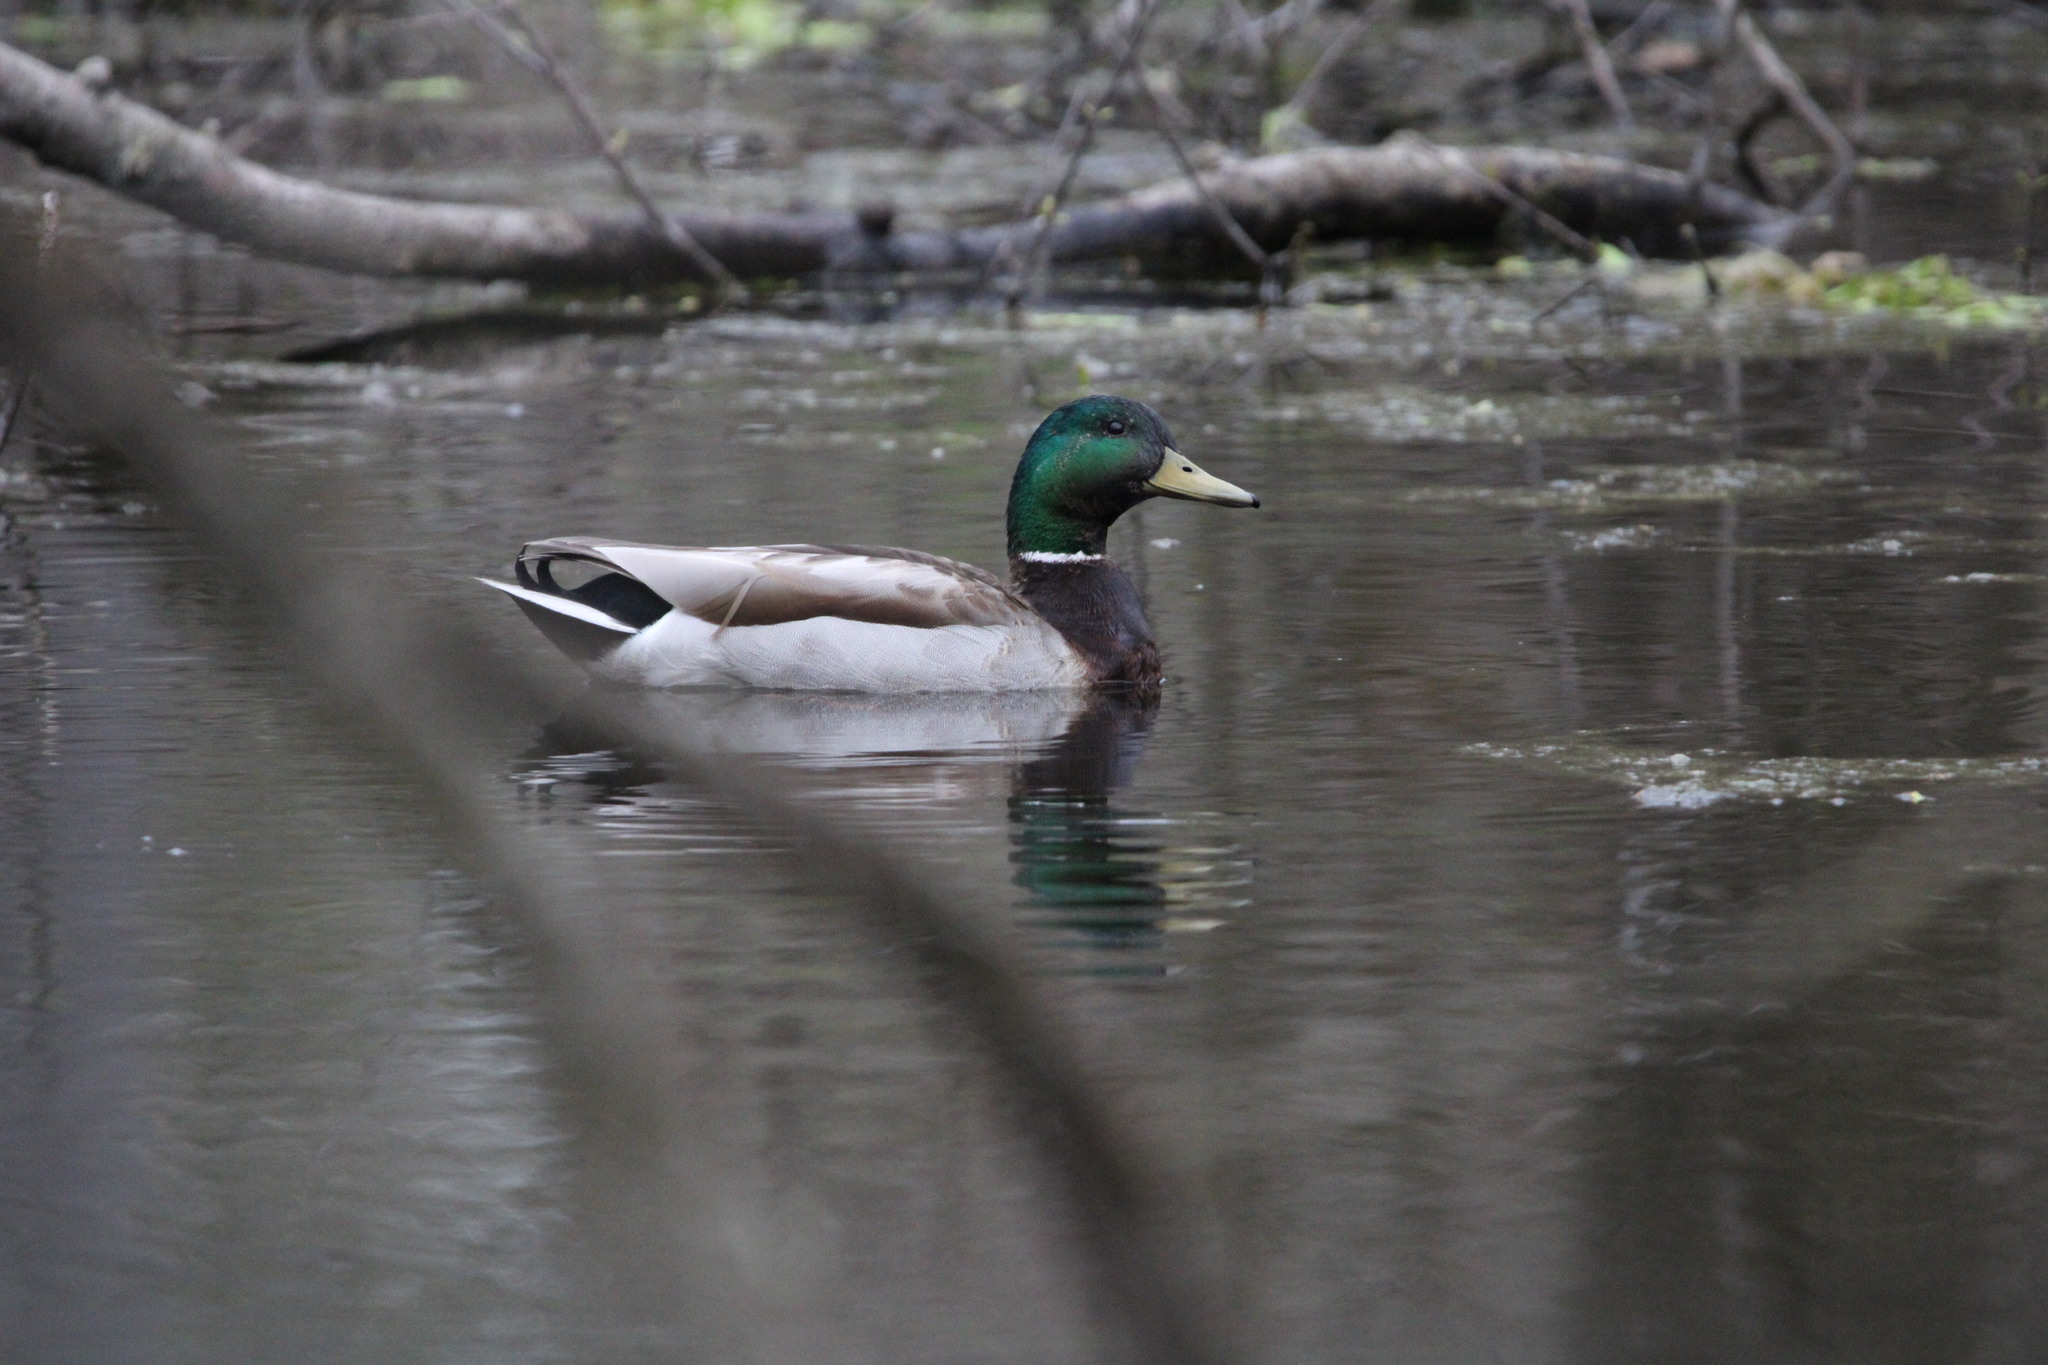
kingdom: Animalia
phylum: Chordata
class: Aves
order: Anseriformes
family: Anatidae
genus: Anas
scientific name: Anas platyrhynchos
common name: Mallard
